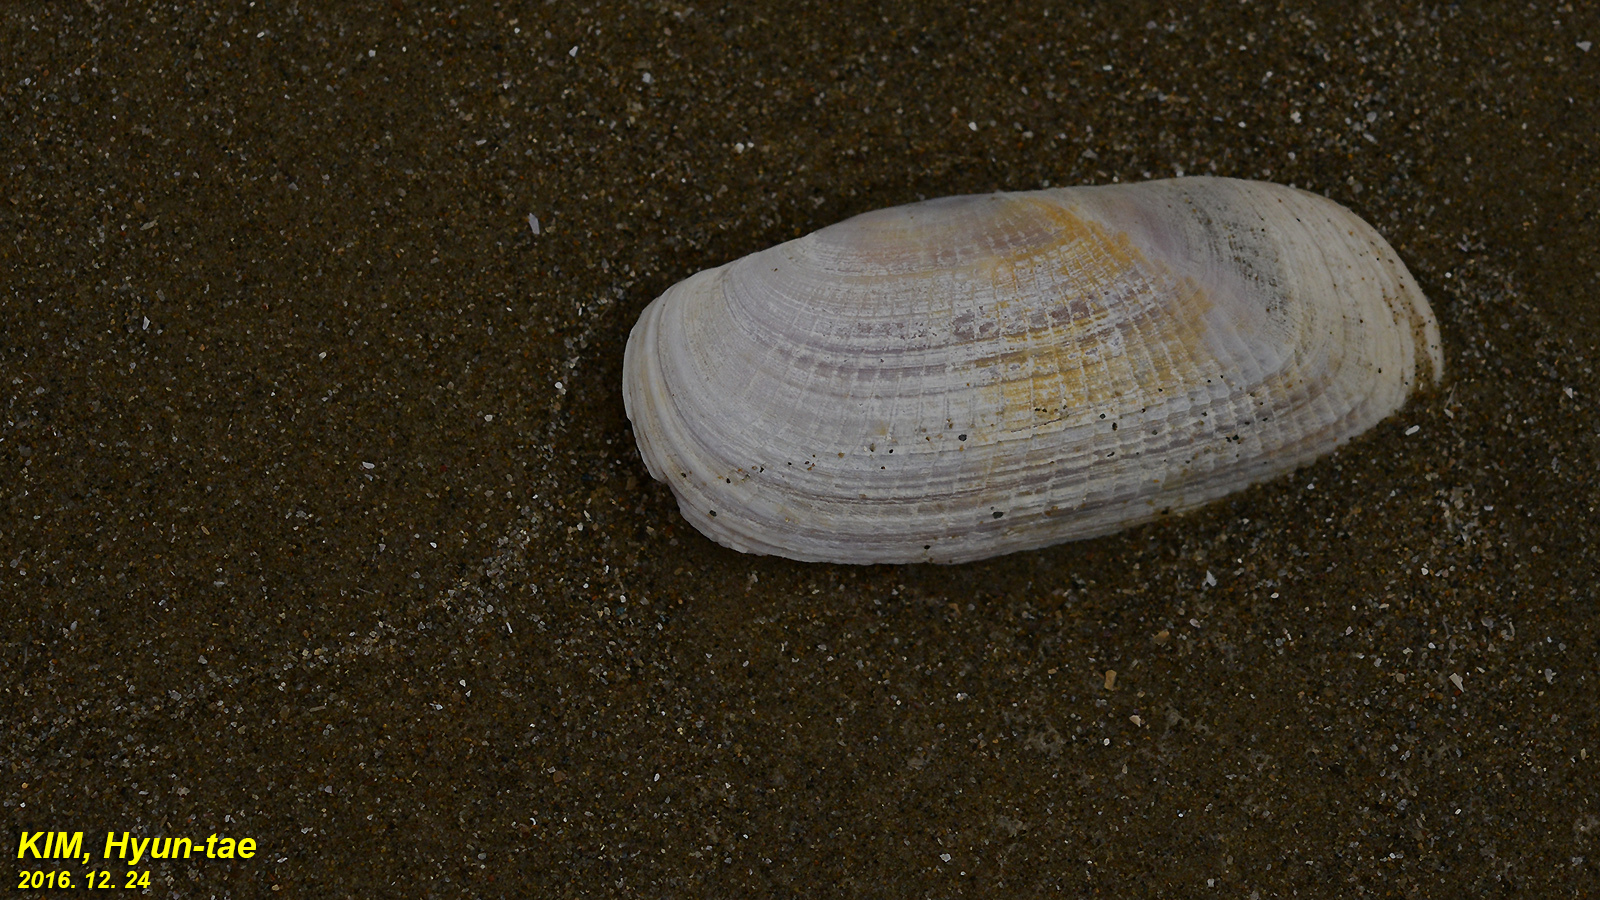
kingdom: Animalia
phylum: Mollusca
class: Bivalvia
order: Cardiida
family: Solecurtidae
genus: Solecurtus
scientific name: Solecurtus divaricatus
